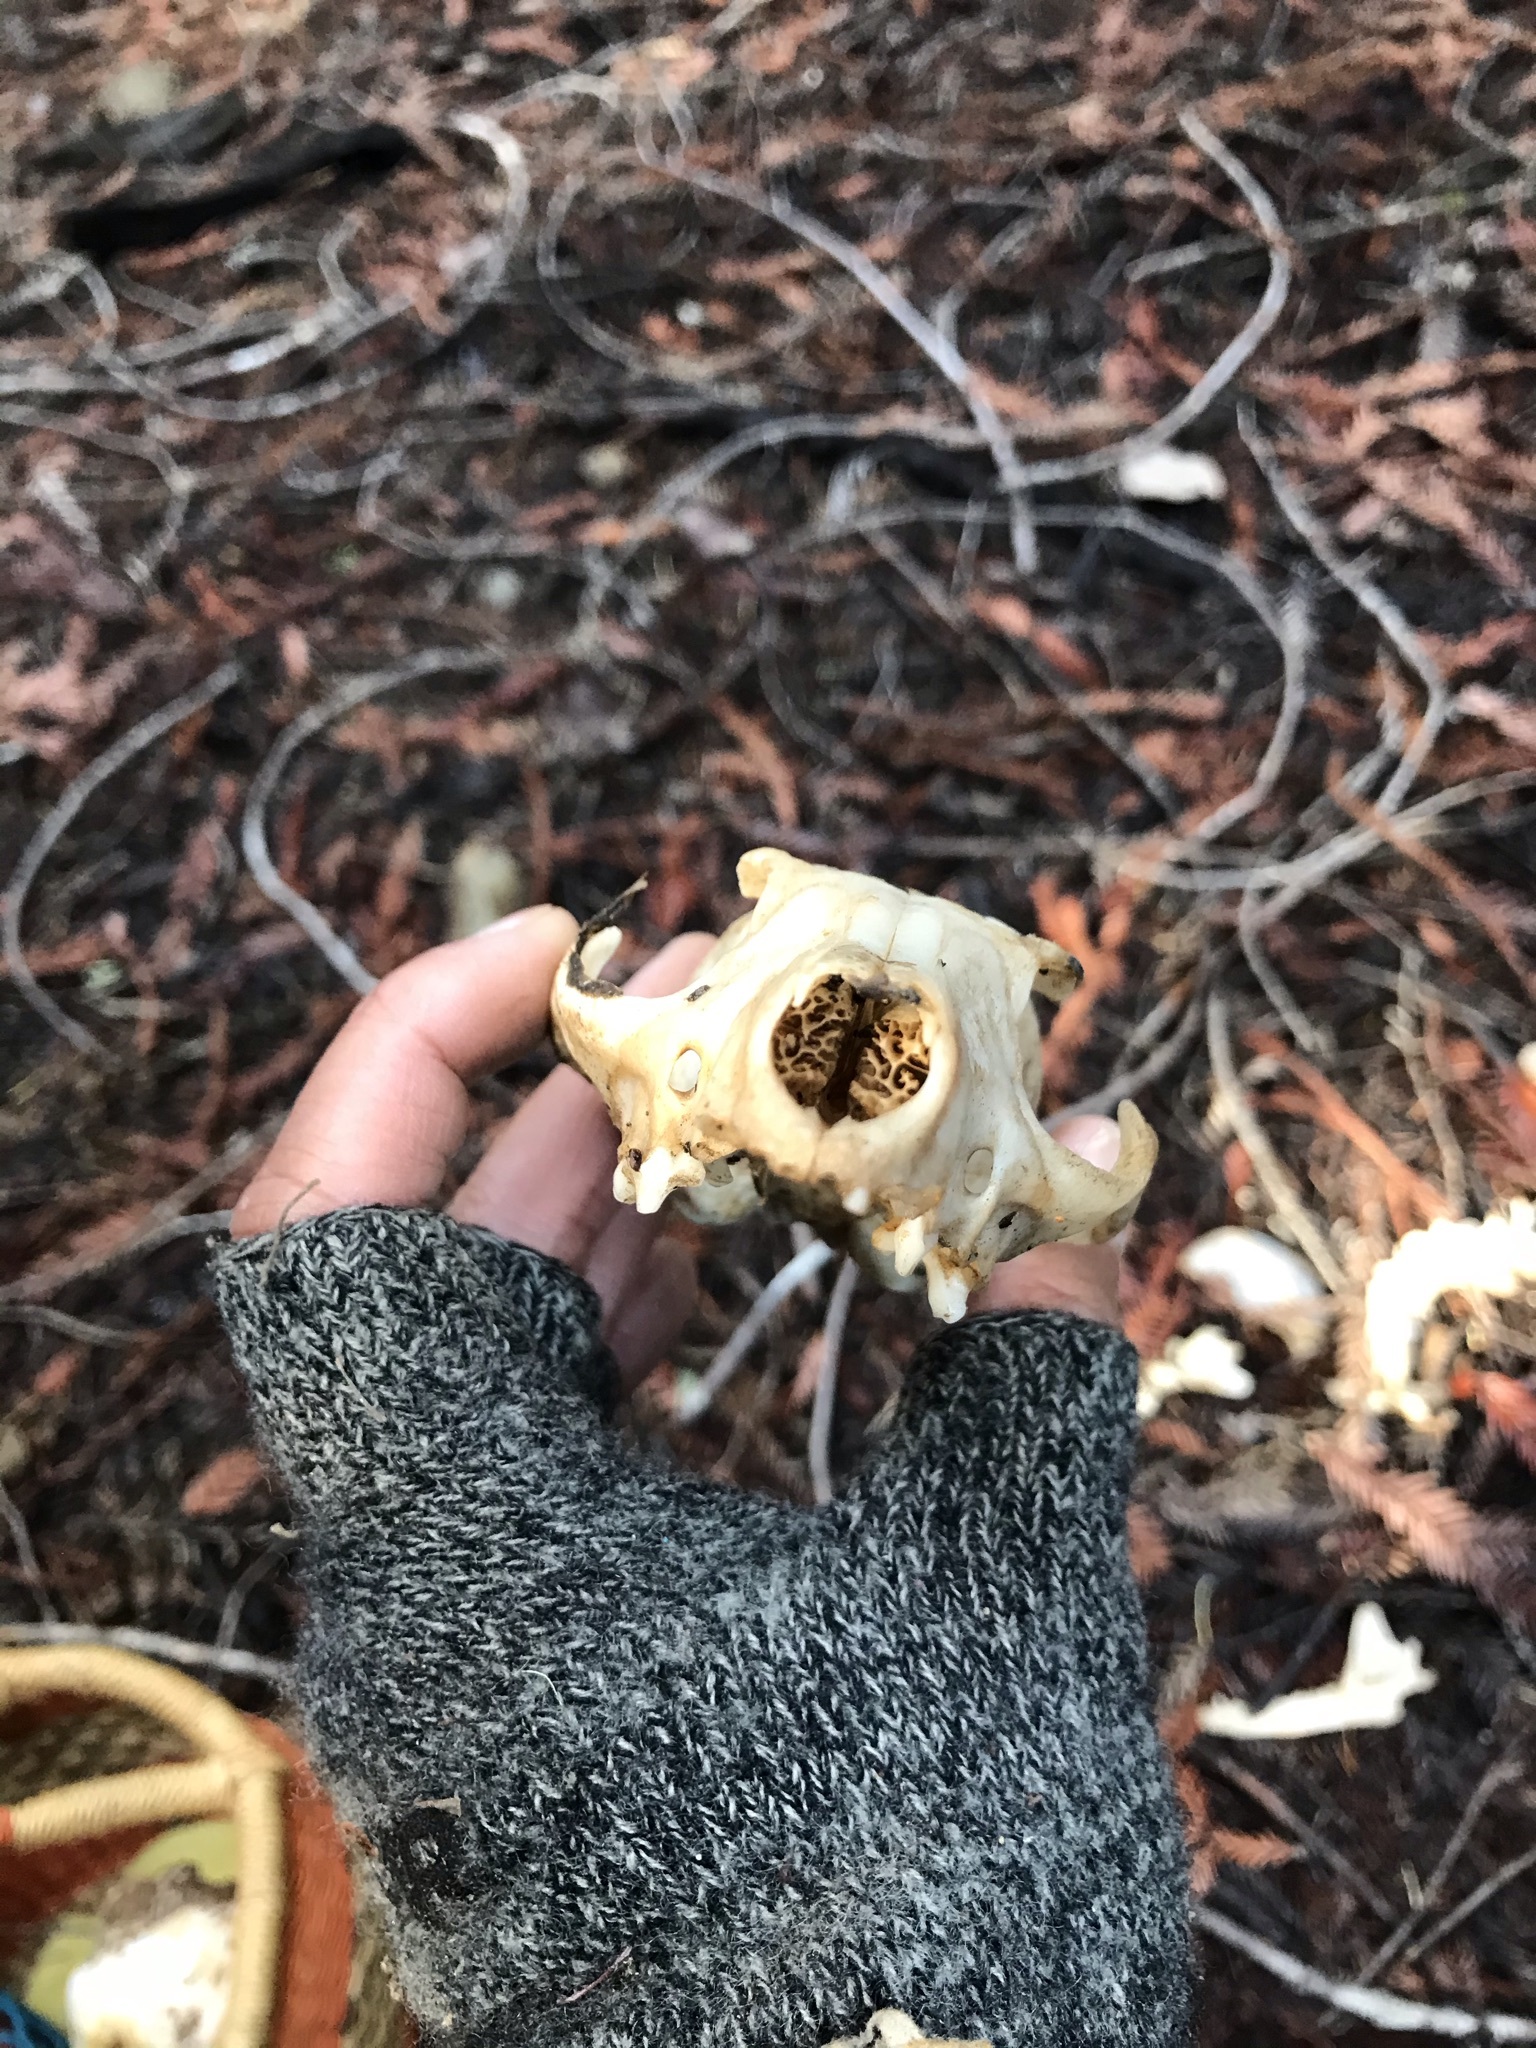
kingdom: Animalia
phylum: Chordata
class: Mammalia
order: Carnivora
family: Canidae
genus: Urocyon
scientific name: Urocyon cinereoargenteus
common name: Gray fox
